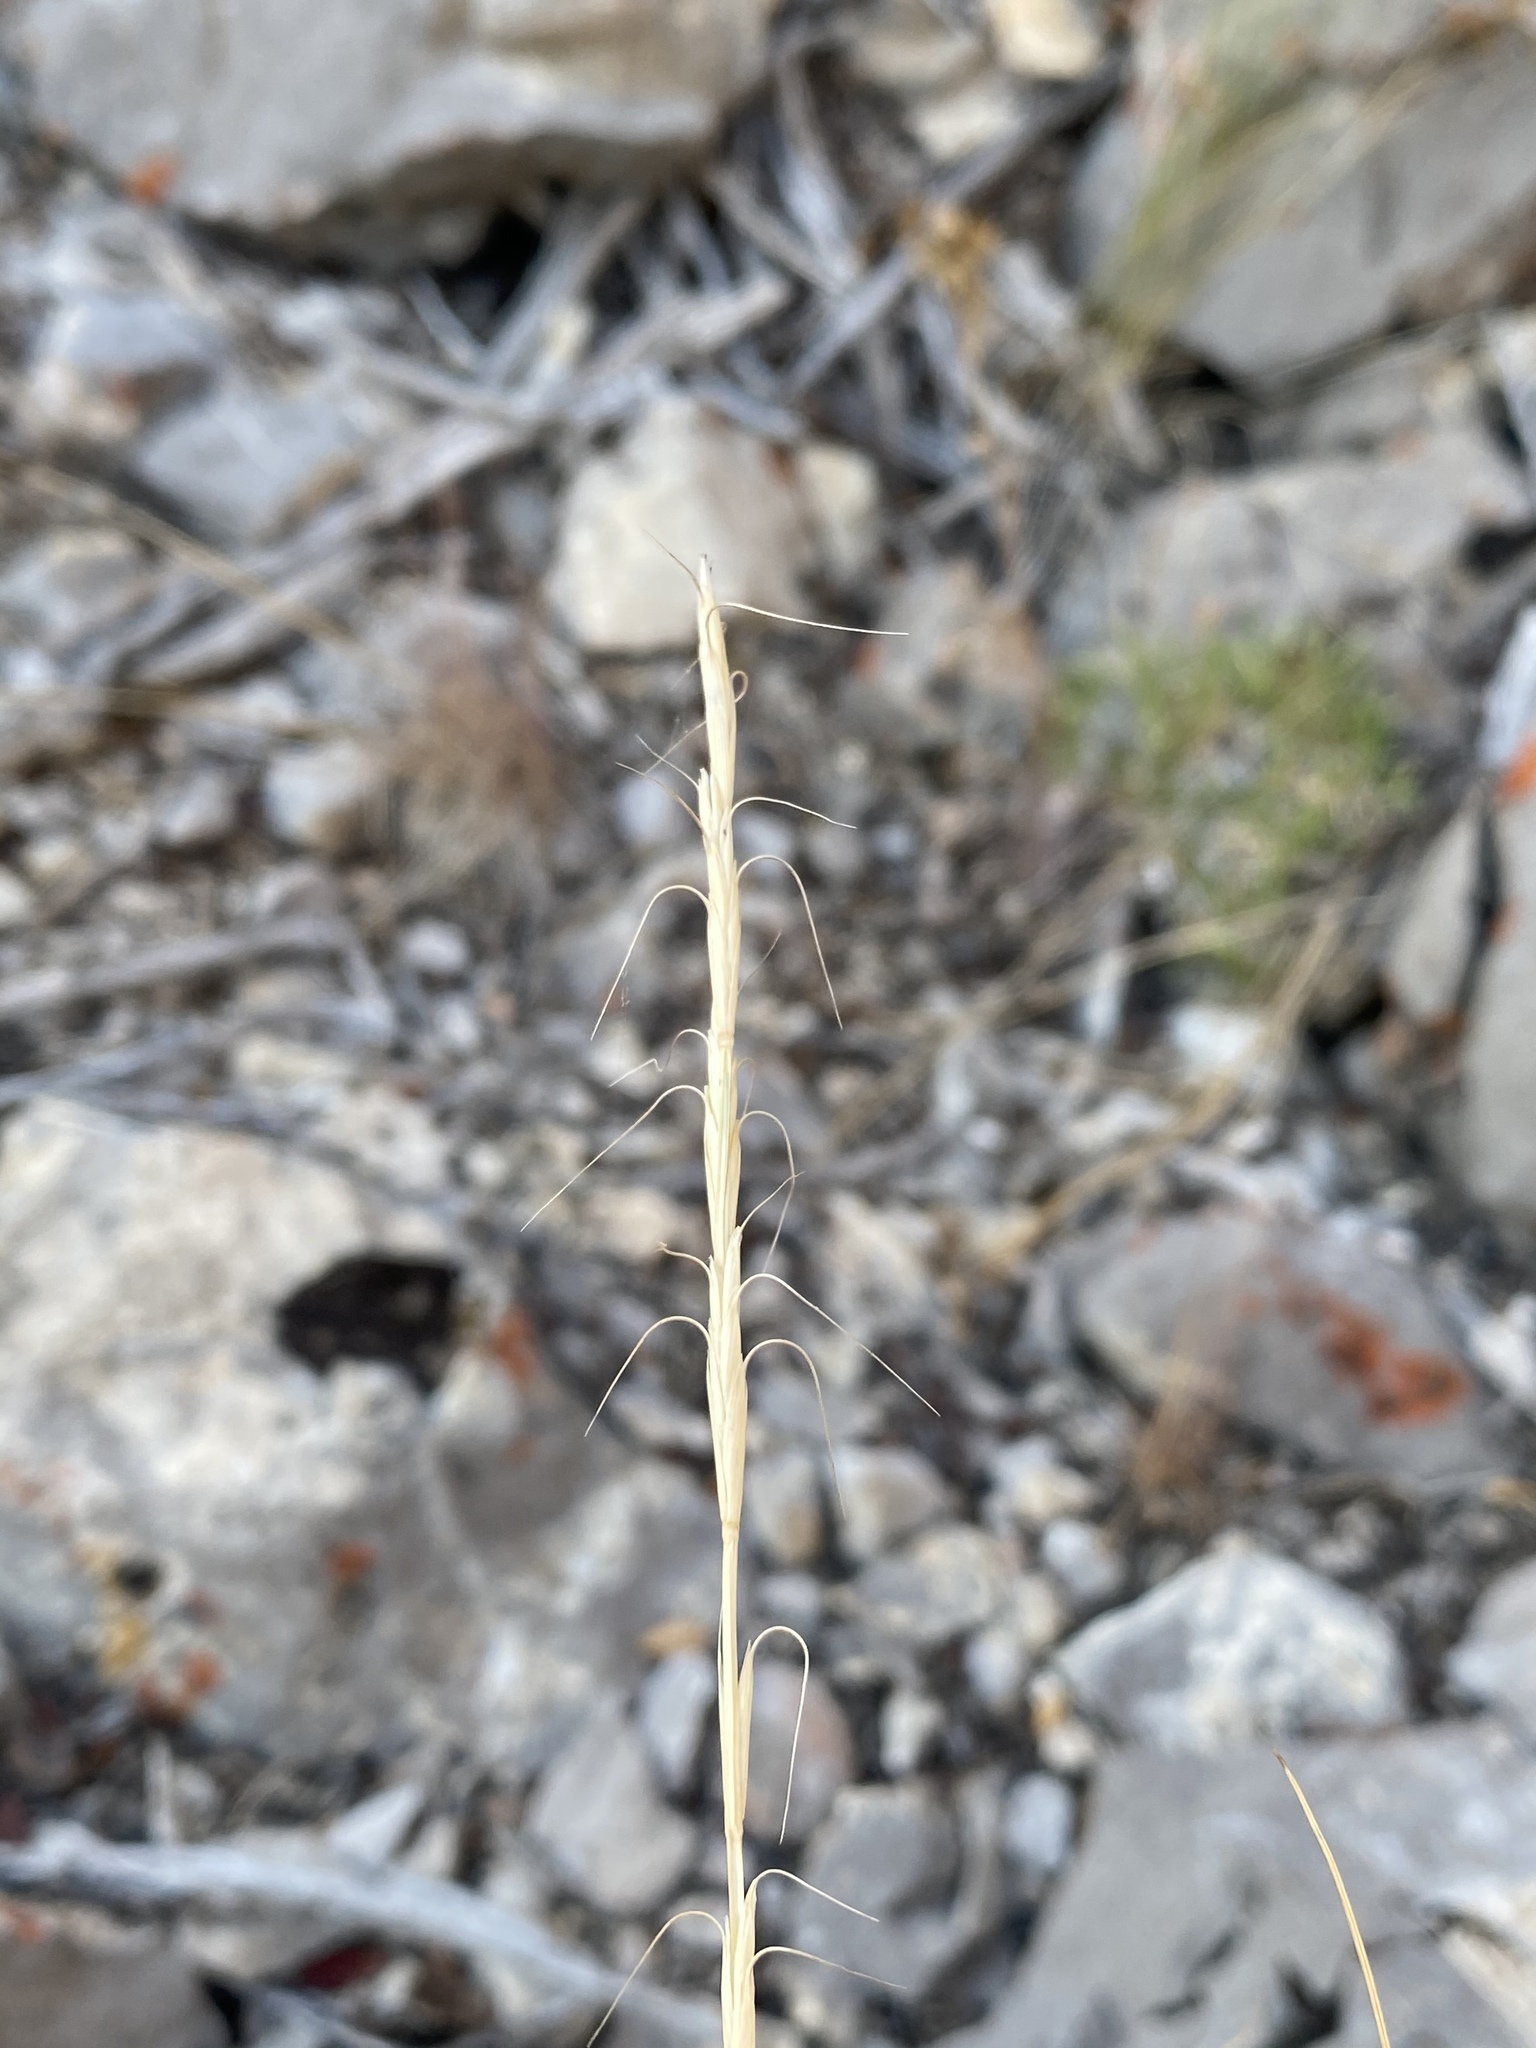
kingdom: Plantae
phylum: Tracheophyta
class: Liliopsida
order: Poales
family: Poaceae
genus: Pseudoroegneria
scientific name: Pseudoroegneria spicata
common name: Bluebunch wheatgrass
